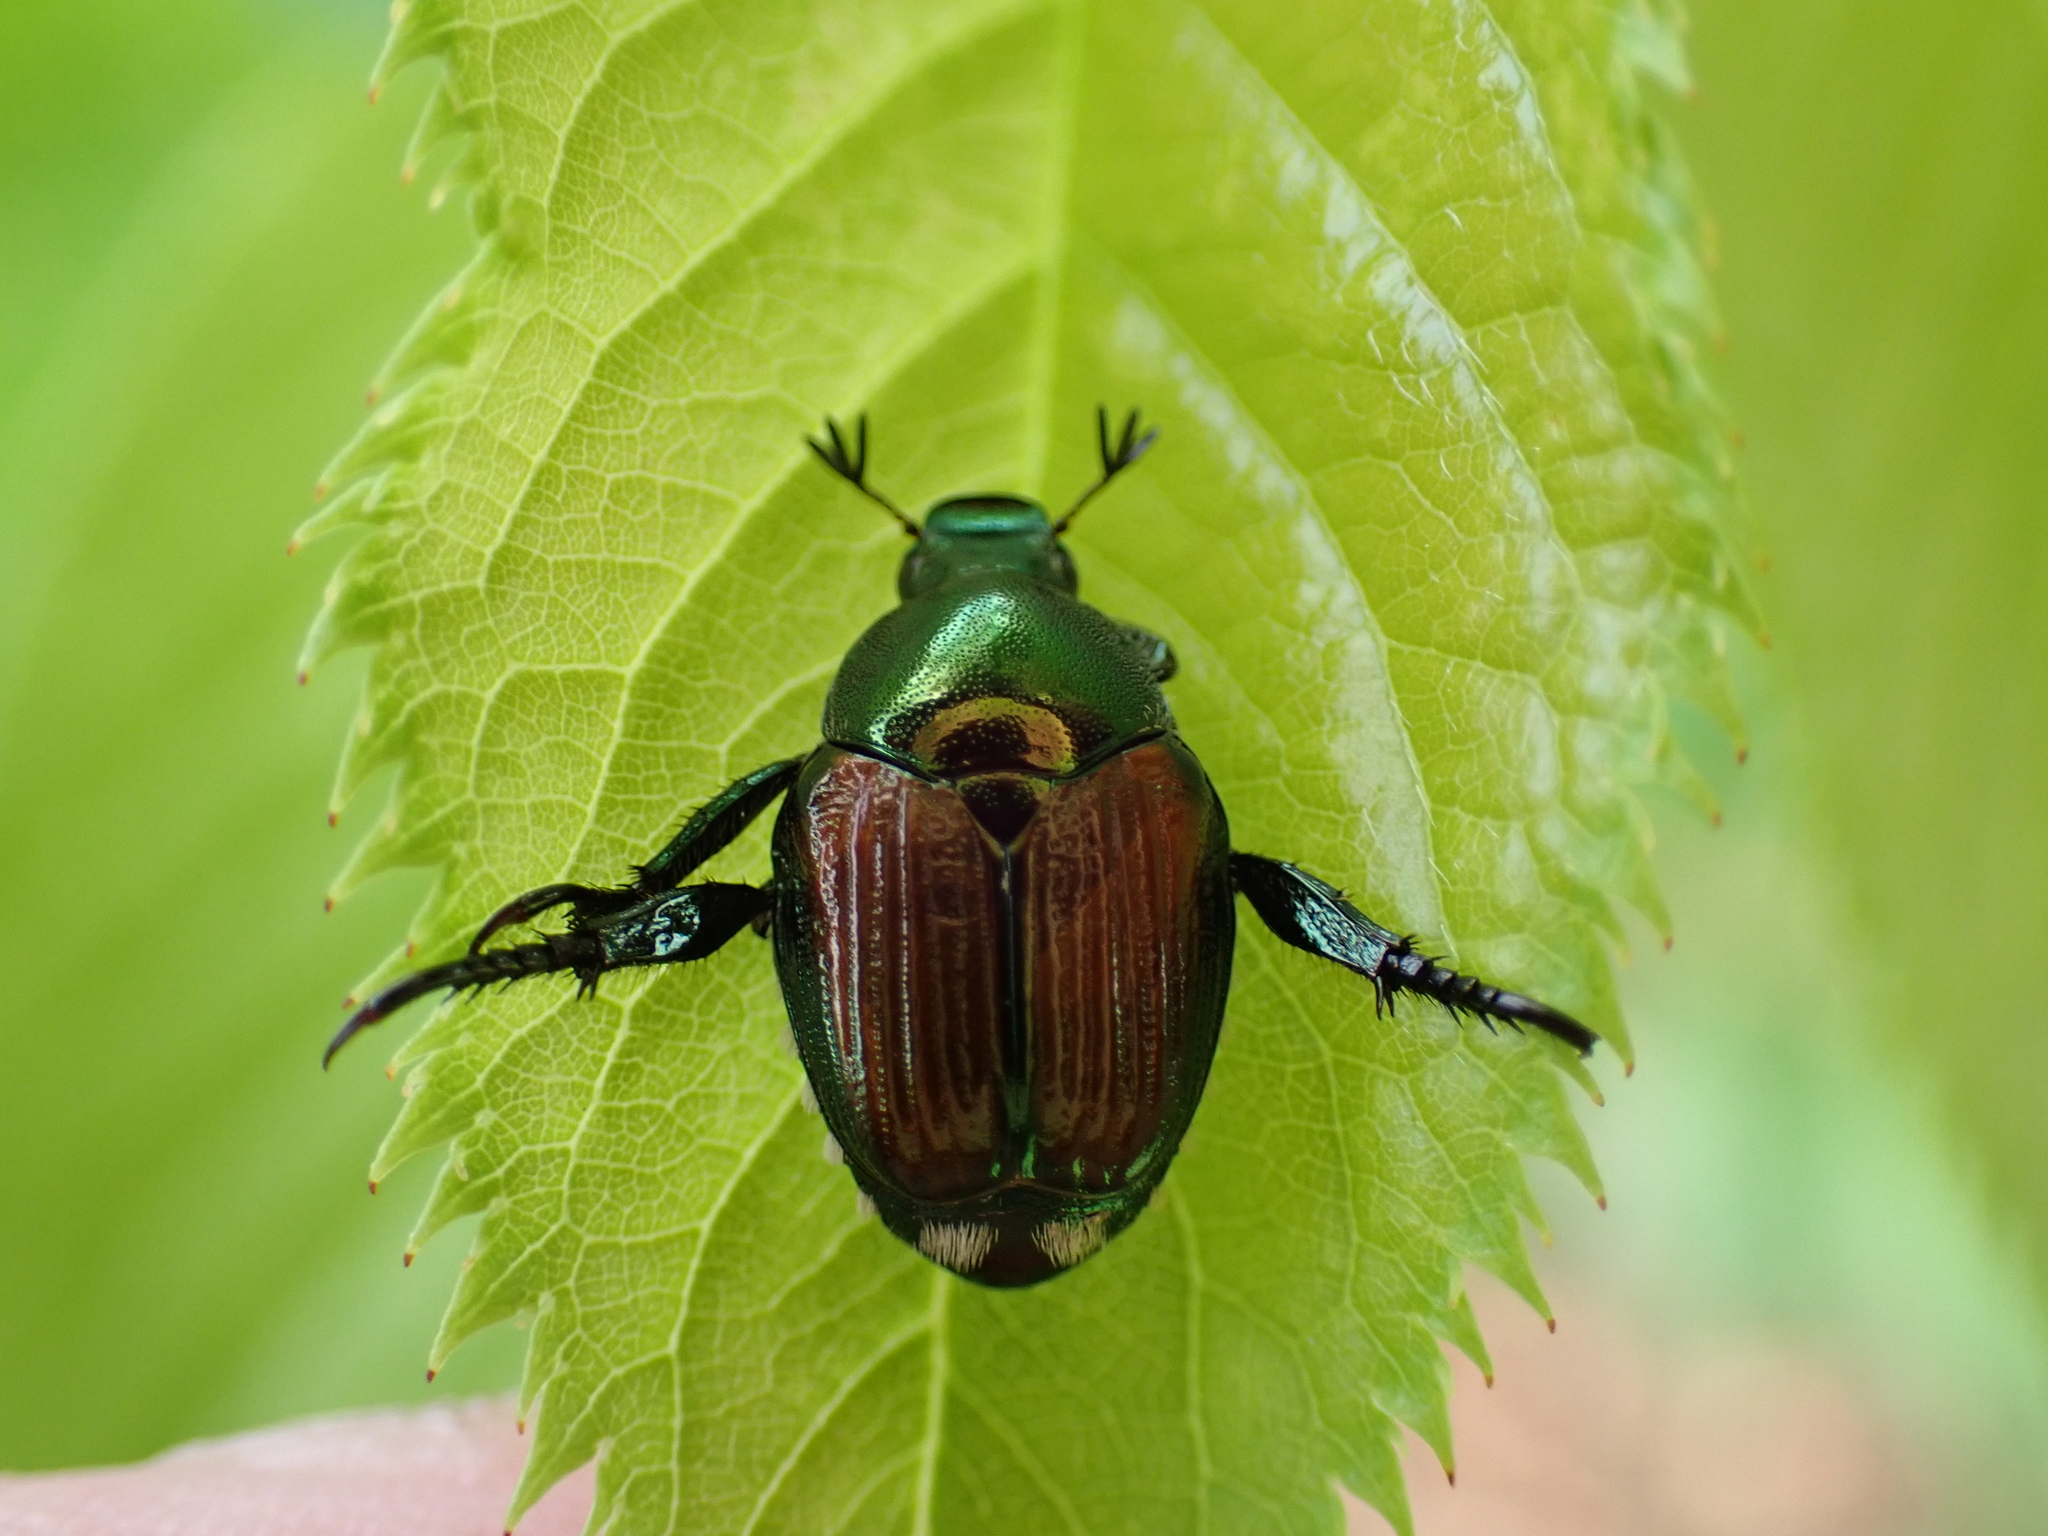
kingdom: Animalia
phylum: Arthropoda
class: Insecta
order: Coleoptera
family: Scarabaeidae
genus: Popillia
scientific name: Popillia japonica
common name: Japanese beetle
